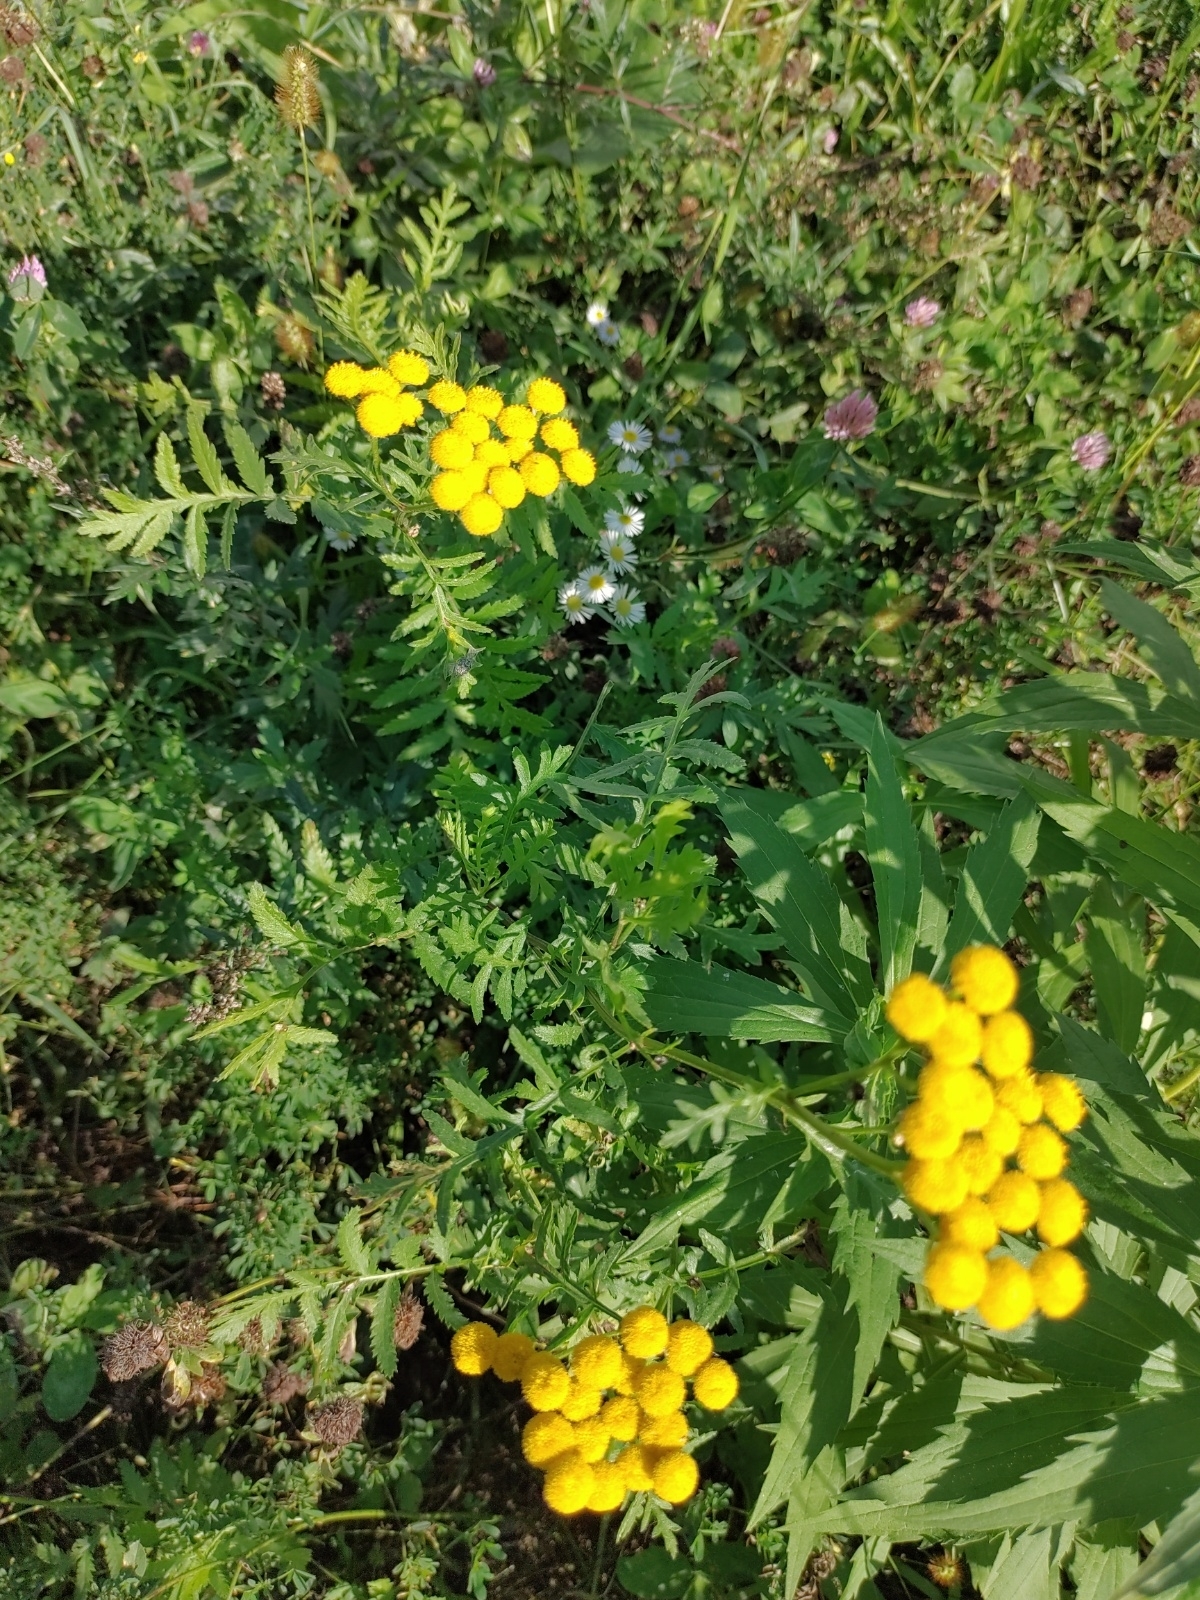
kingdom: Plantae
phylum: Tracheophyta
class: Magnoliopsida
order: Asterales
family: Asteraceae
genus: Tanacetum
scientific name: Tanacetum vulgare
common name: Common tansy
